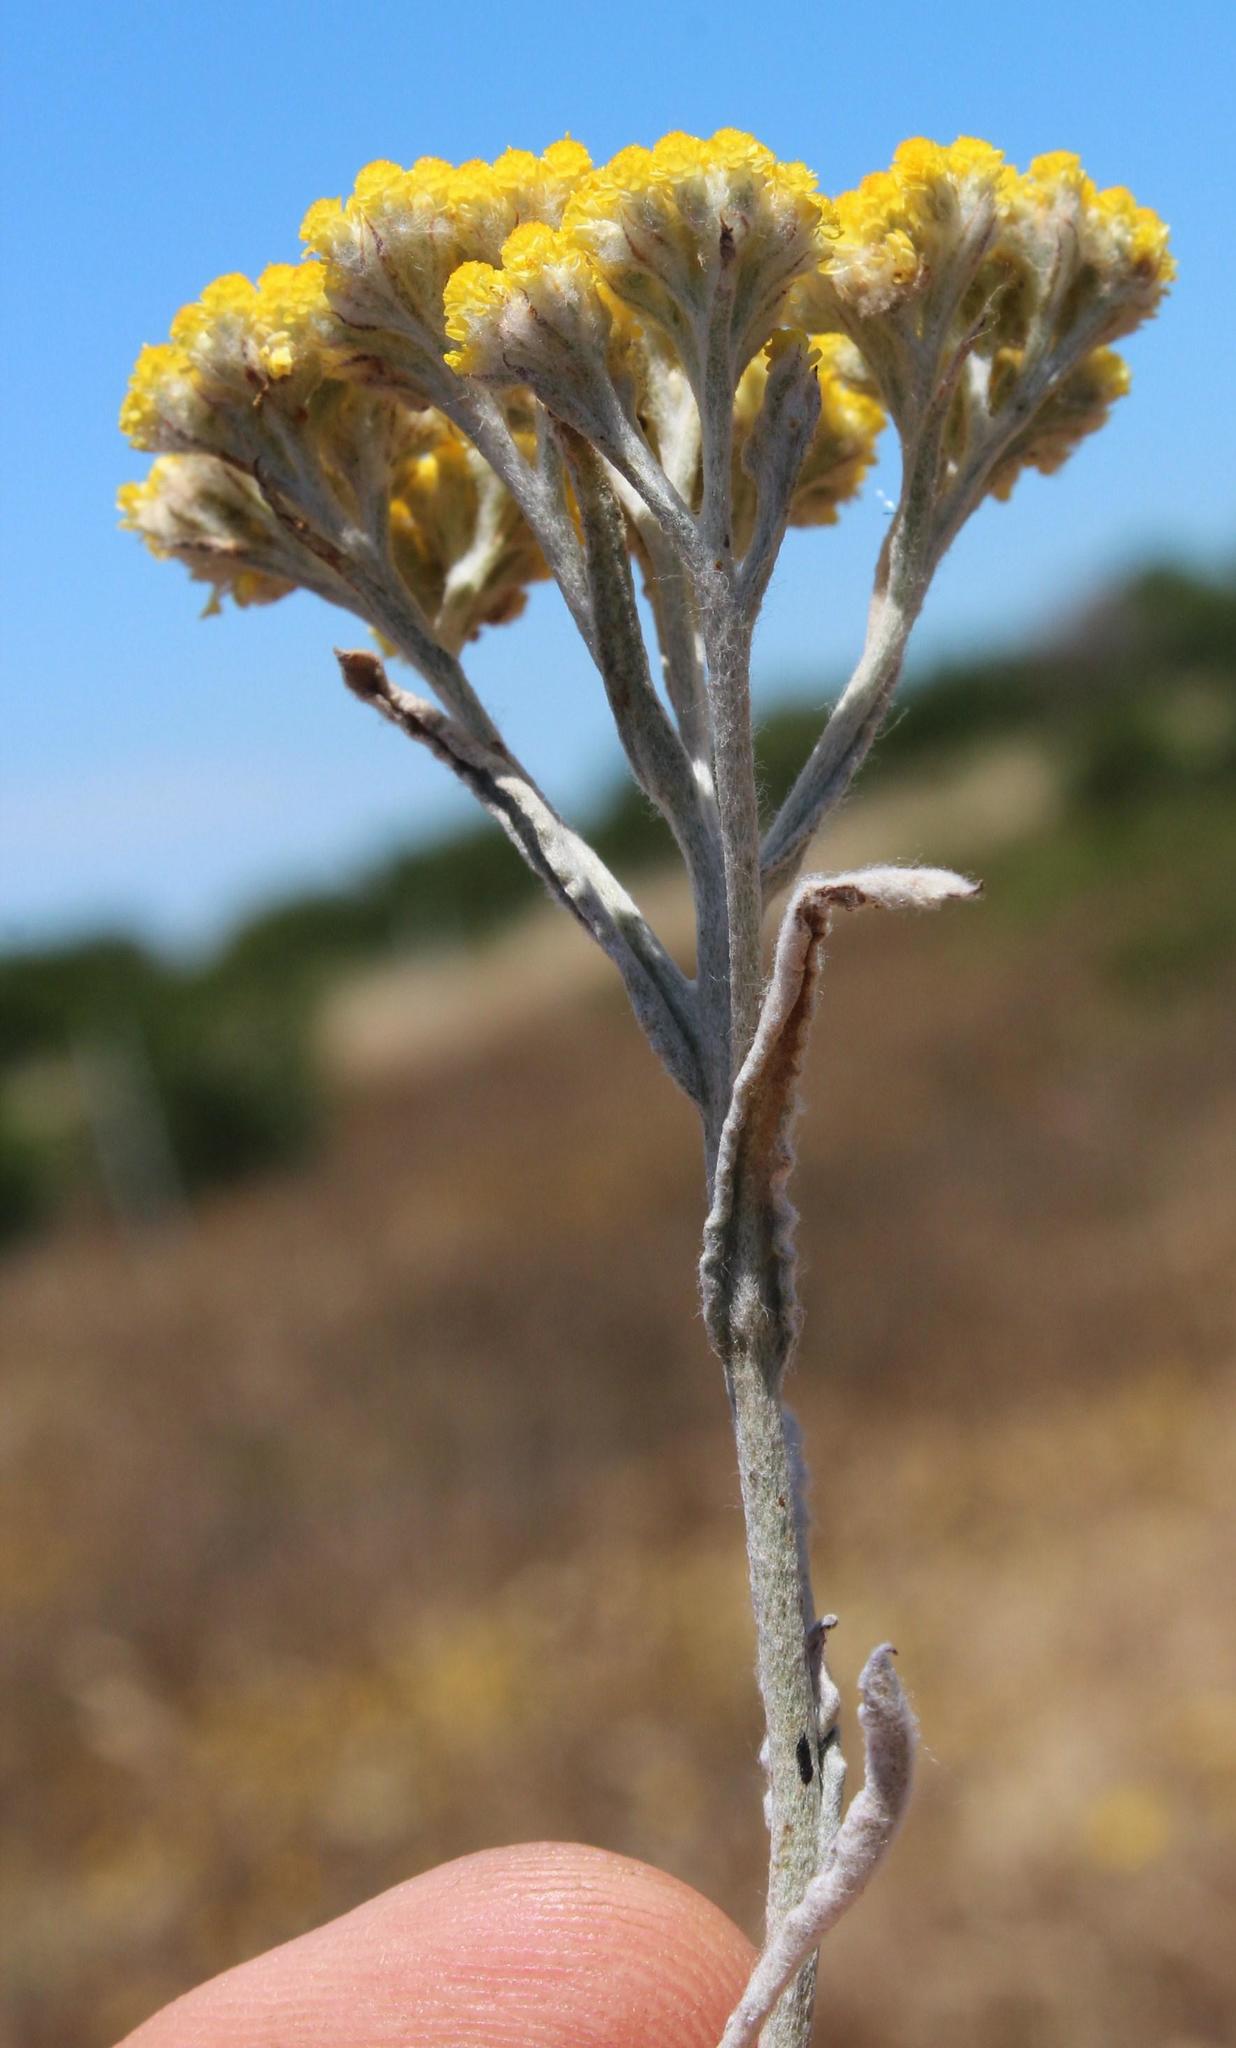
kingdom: Plantae
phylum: Tracheophyta
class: Magnoliopsida
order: Asterales
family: Asteraceae
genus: Helichrysum
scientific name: Helichrysum moeserianum
